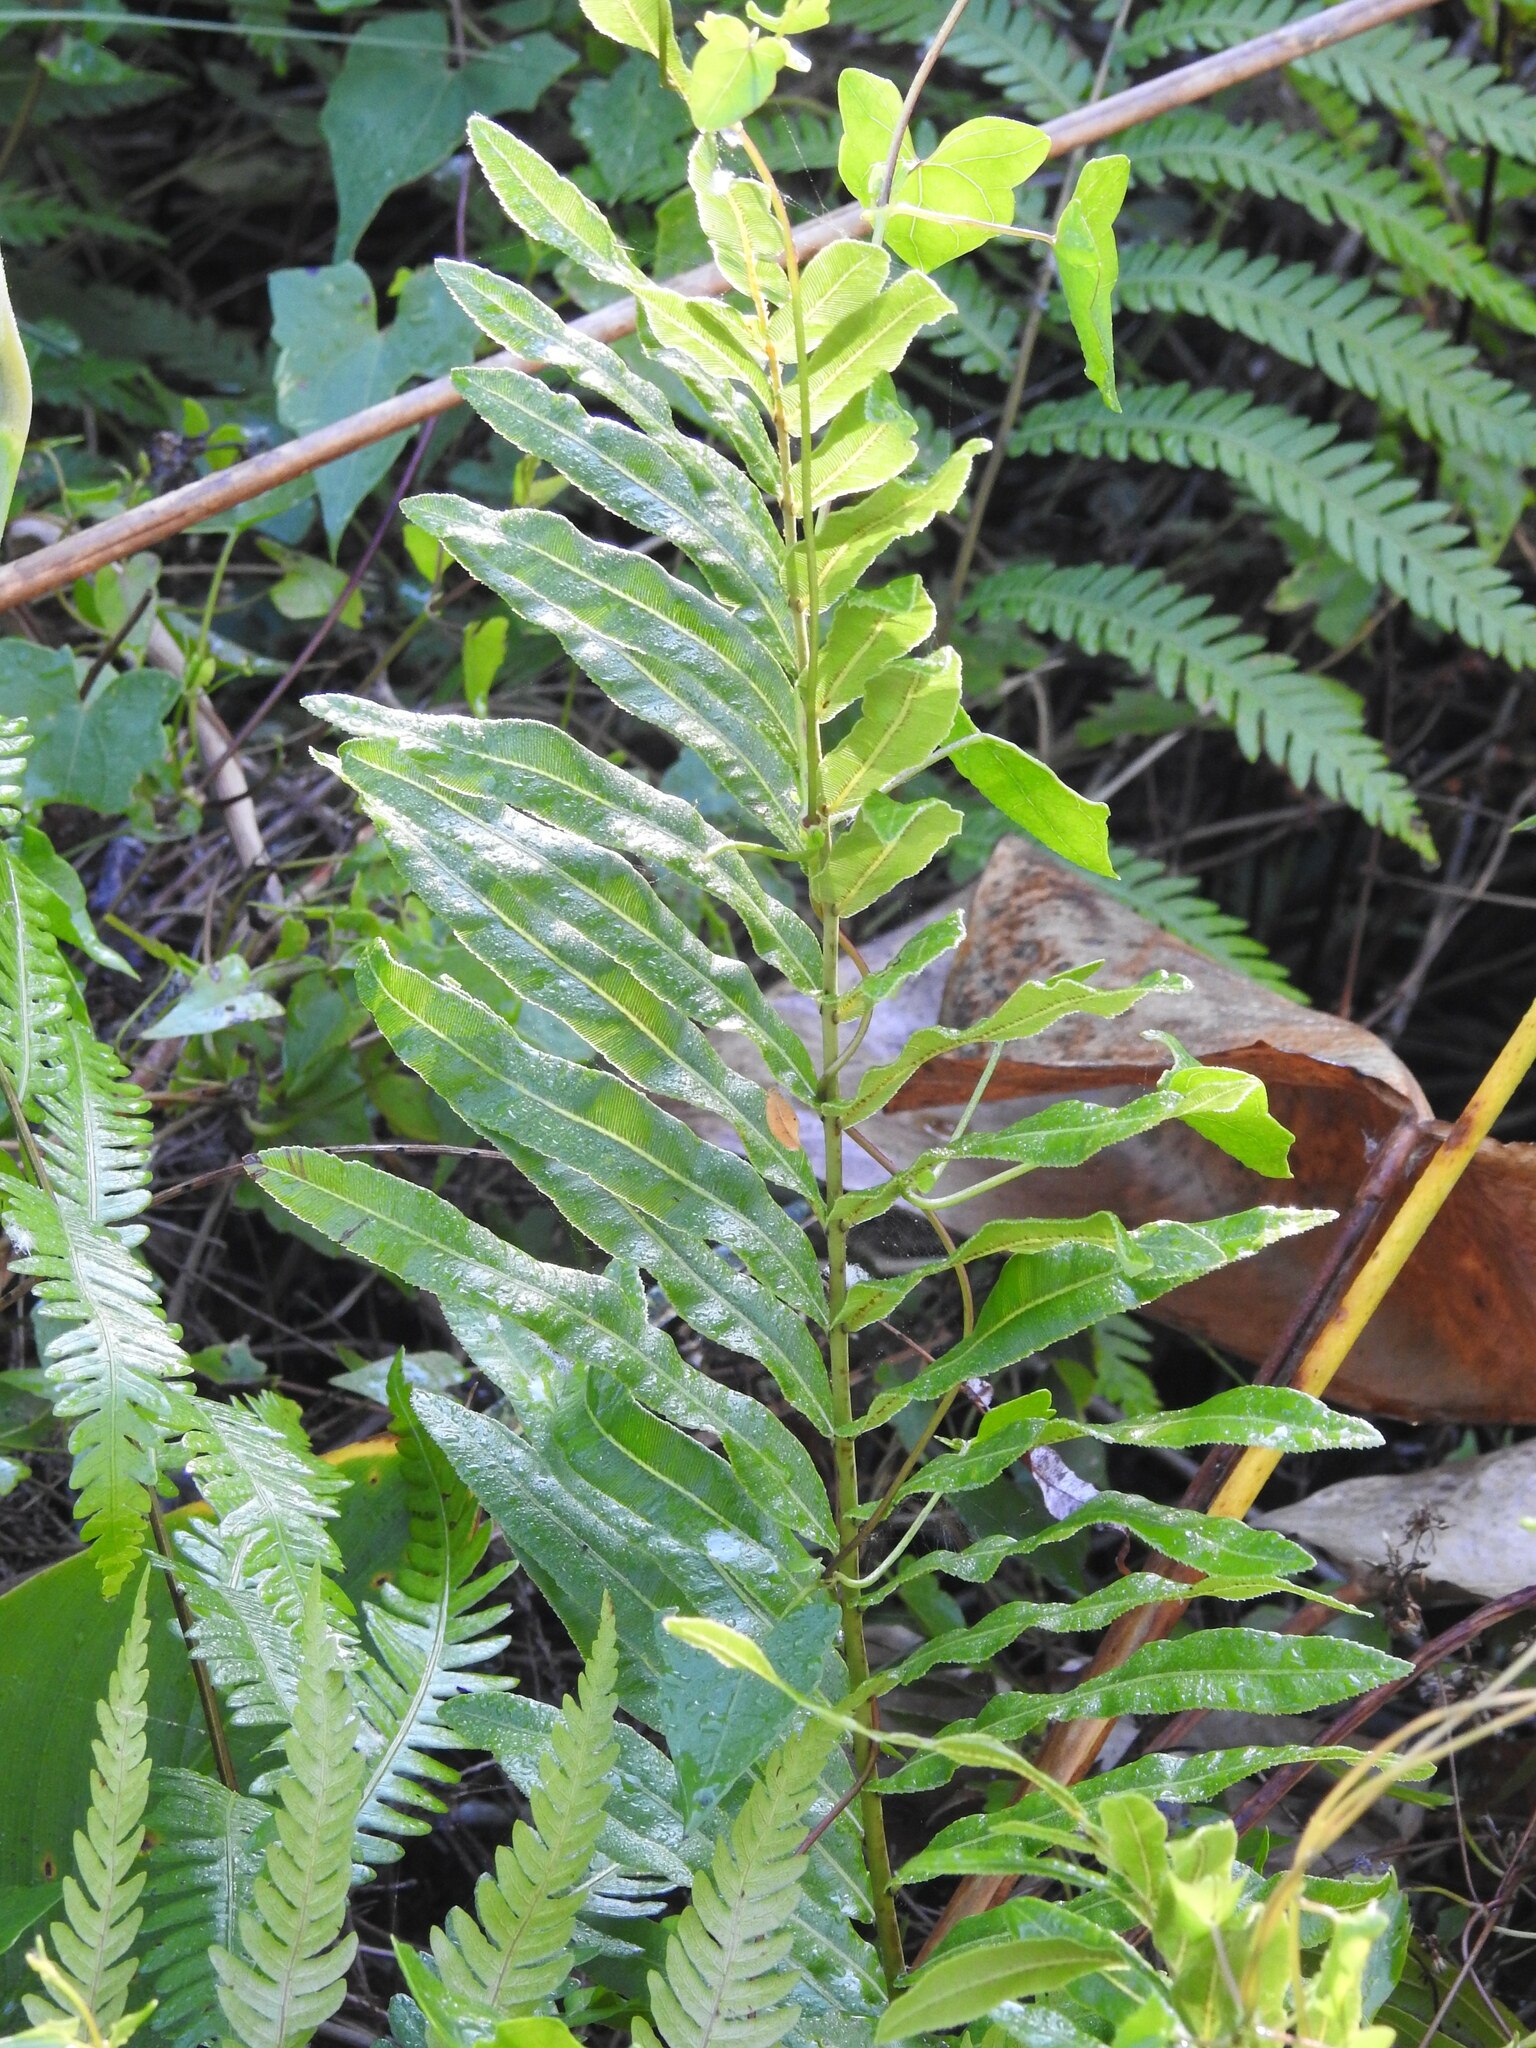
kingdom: Plantae
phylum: Tracheophyta
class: Polypodiopsida
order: Polypodiales
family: Blechnaceae
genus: Telmatoblechnum
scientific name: Telmatoblechnum serrulatum
